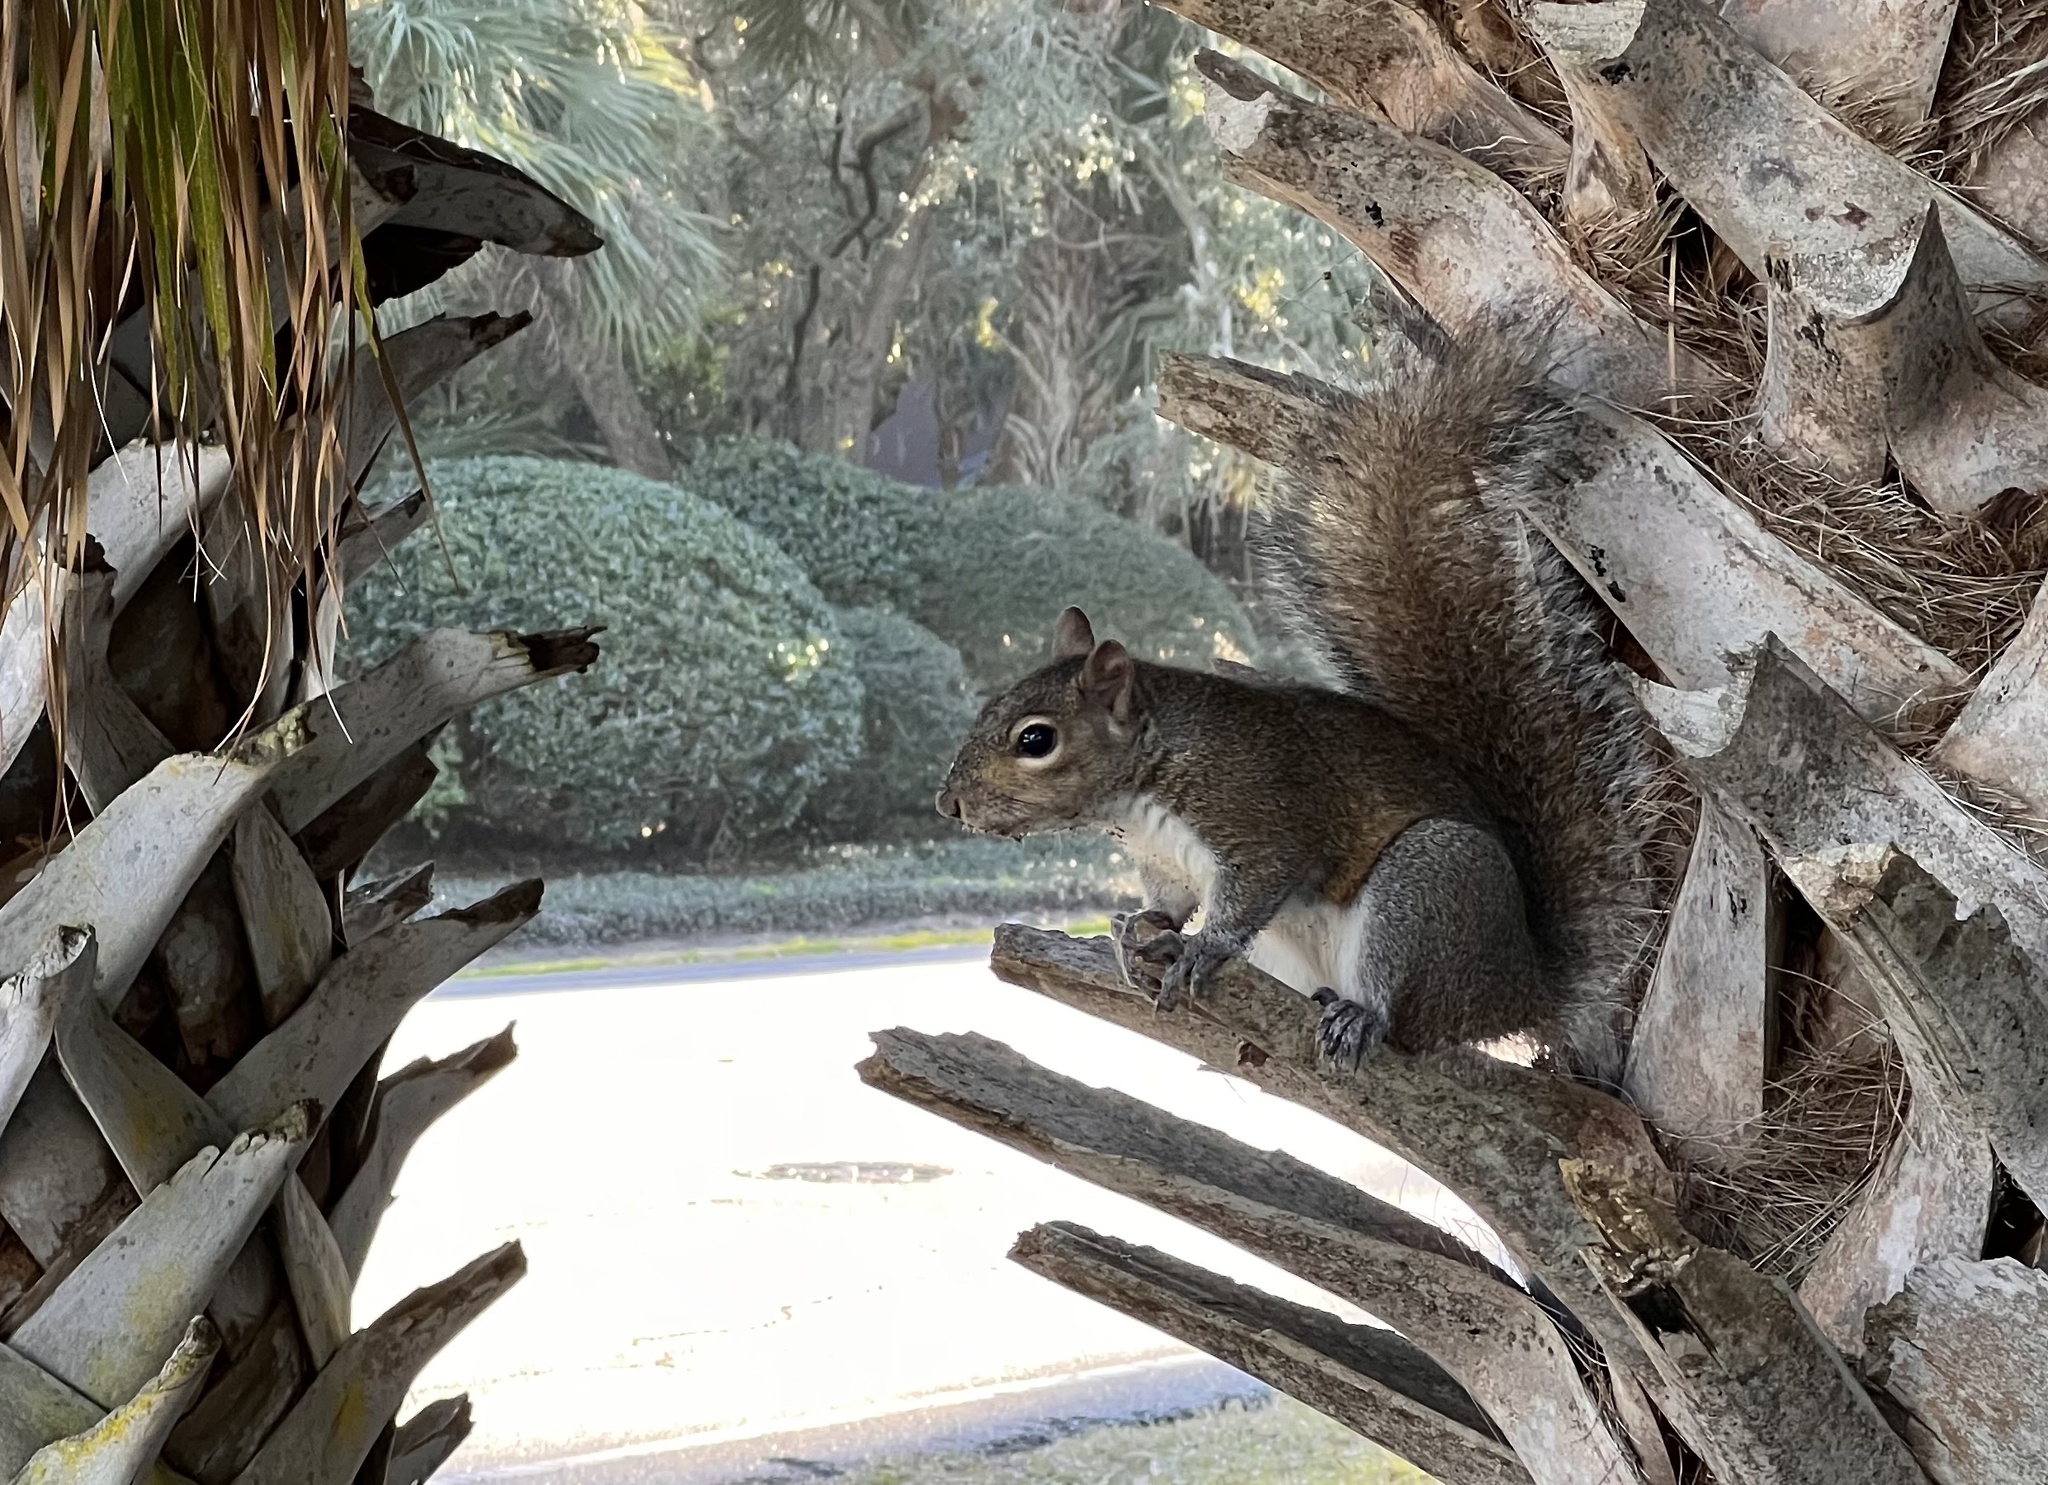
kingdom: Animalia
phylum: Chordata
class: Mammalia
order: Rodentia
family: Sciuridae
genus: Sciurus
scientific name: Sciurus carolinensis
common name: Eastern gray squirrel
